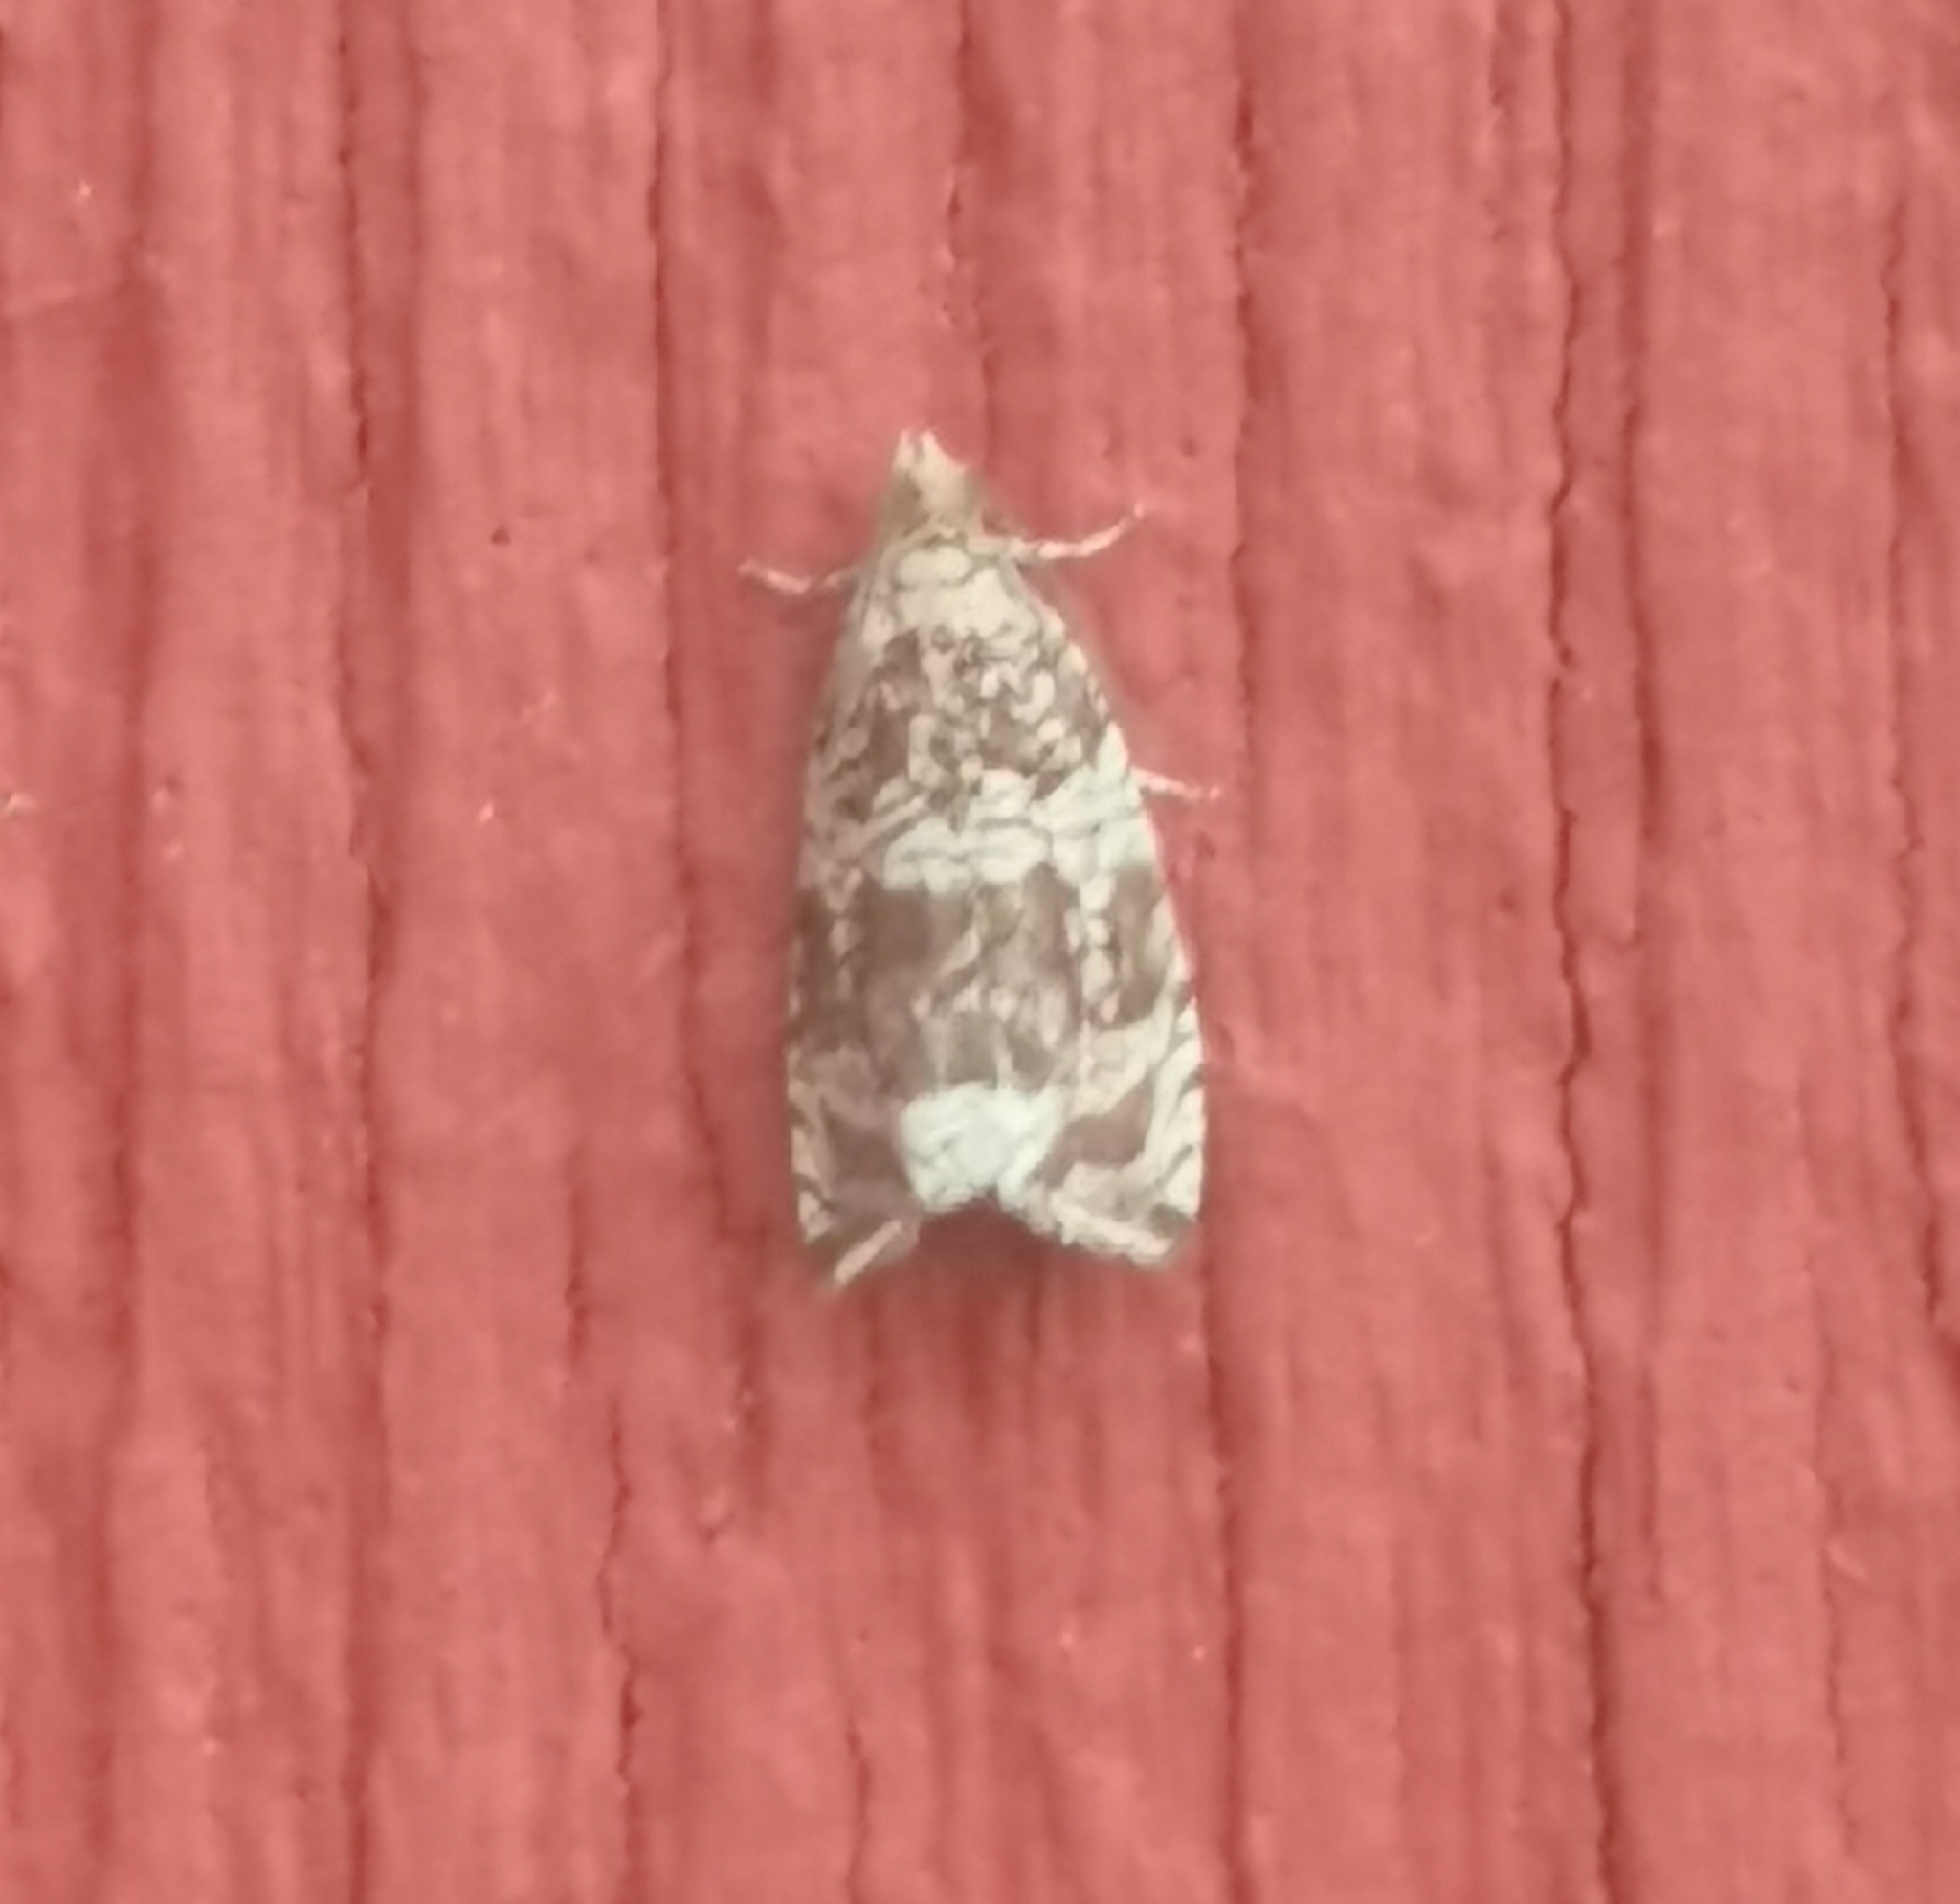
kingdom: Animalia
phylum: Arthropoda
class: Insecta
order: Lepidoptera
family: Tortricidae
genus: Syricoris
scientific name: Syricoris lacunana
